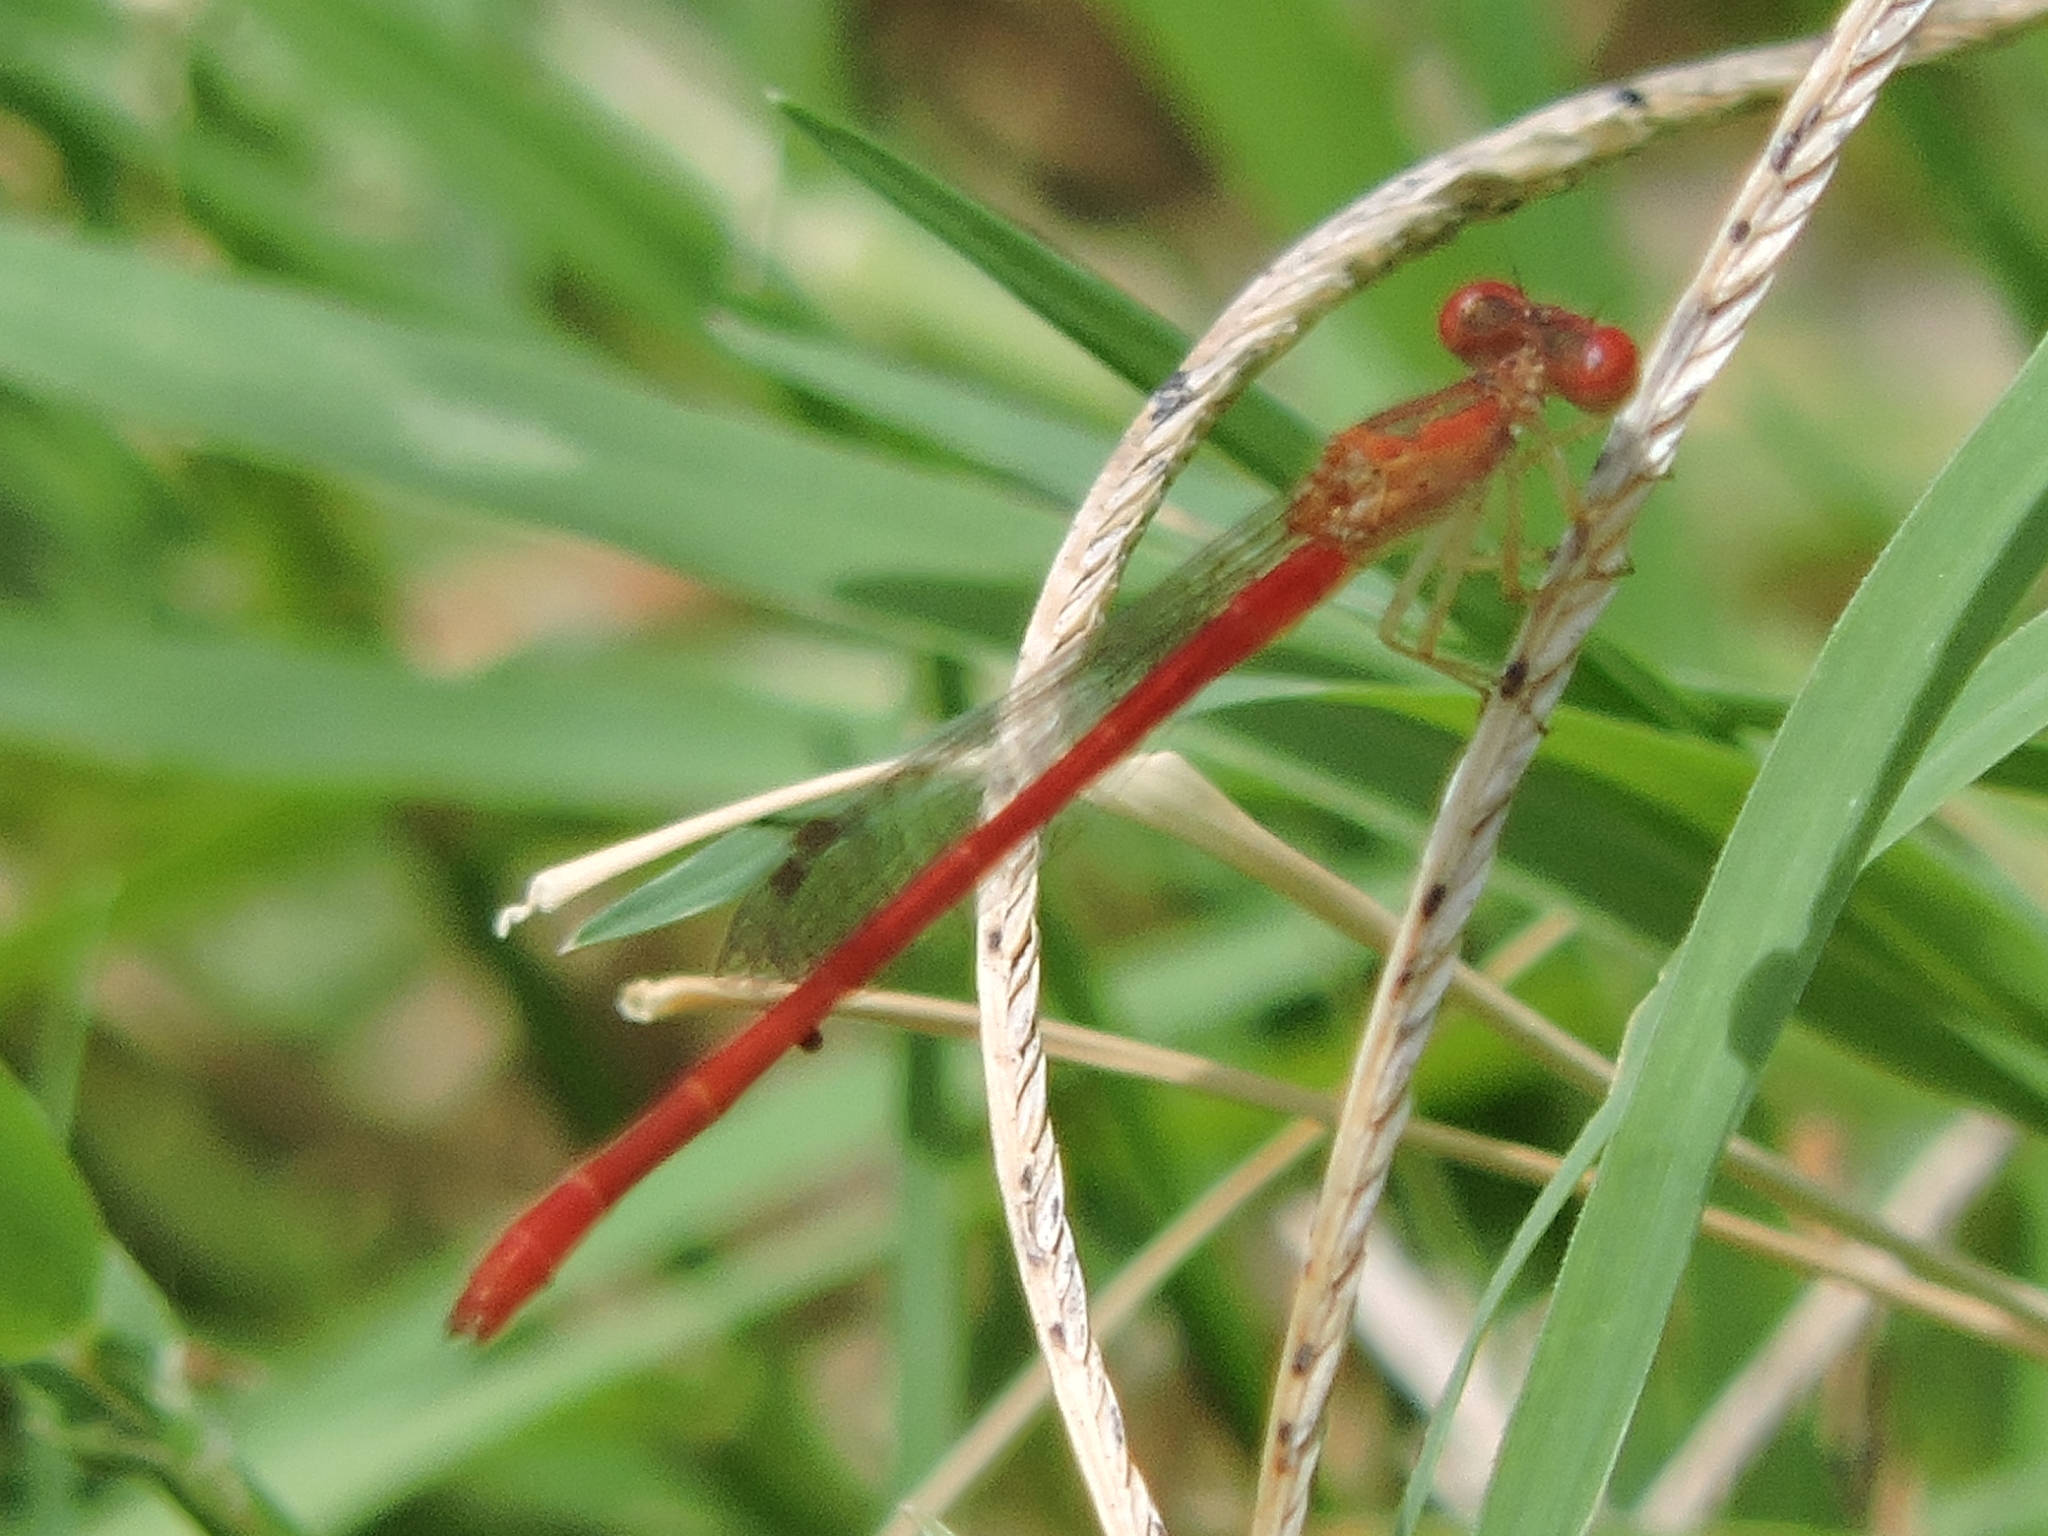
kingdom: Animalia
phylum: Arthropoda
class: Insecta
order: Odonata
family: Coenagrionidae
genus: Telebasis
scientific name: Telebasis salva
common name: Desert firetail
